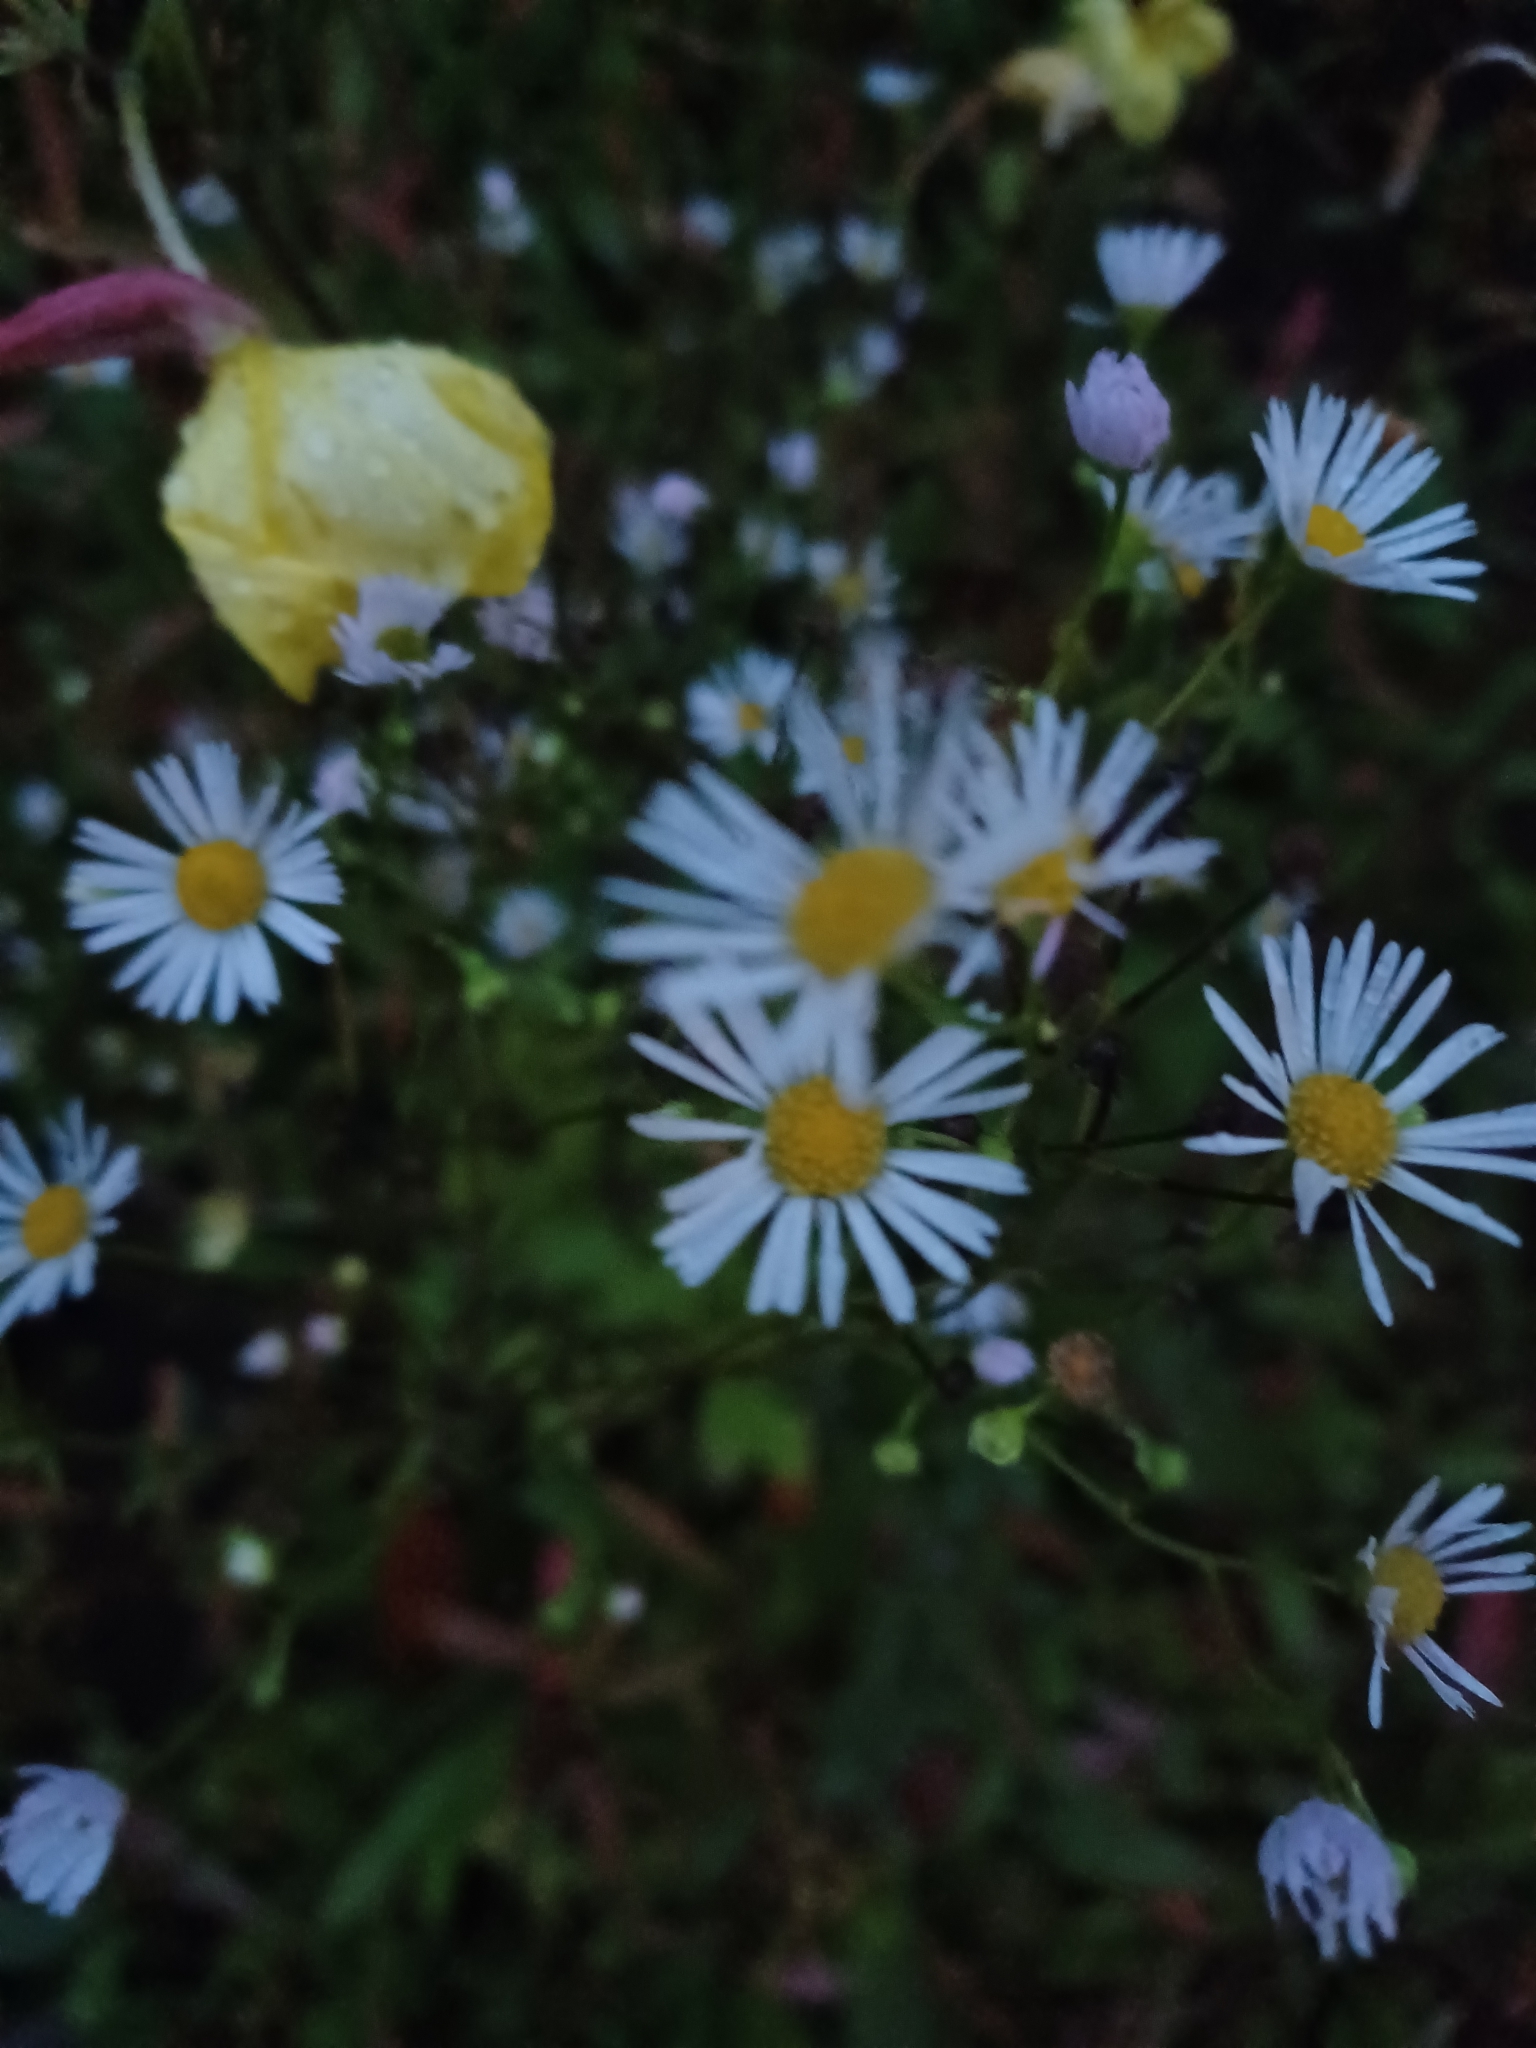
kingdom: Plantae
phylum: Tracheophyta
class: Magnoliopsida
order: Asterales
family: Asteraceae
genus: Erigeron
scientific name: Erigeron annuus
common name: Tall fleabane
